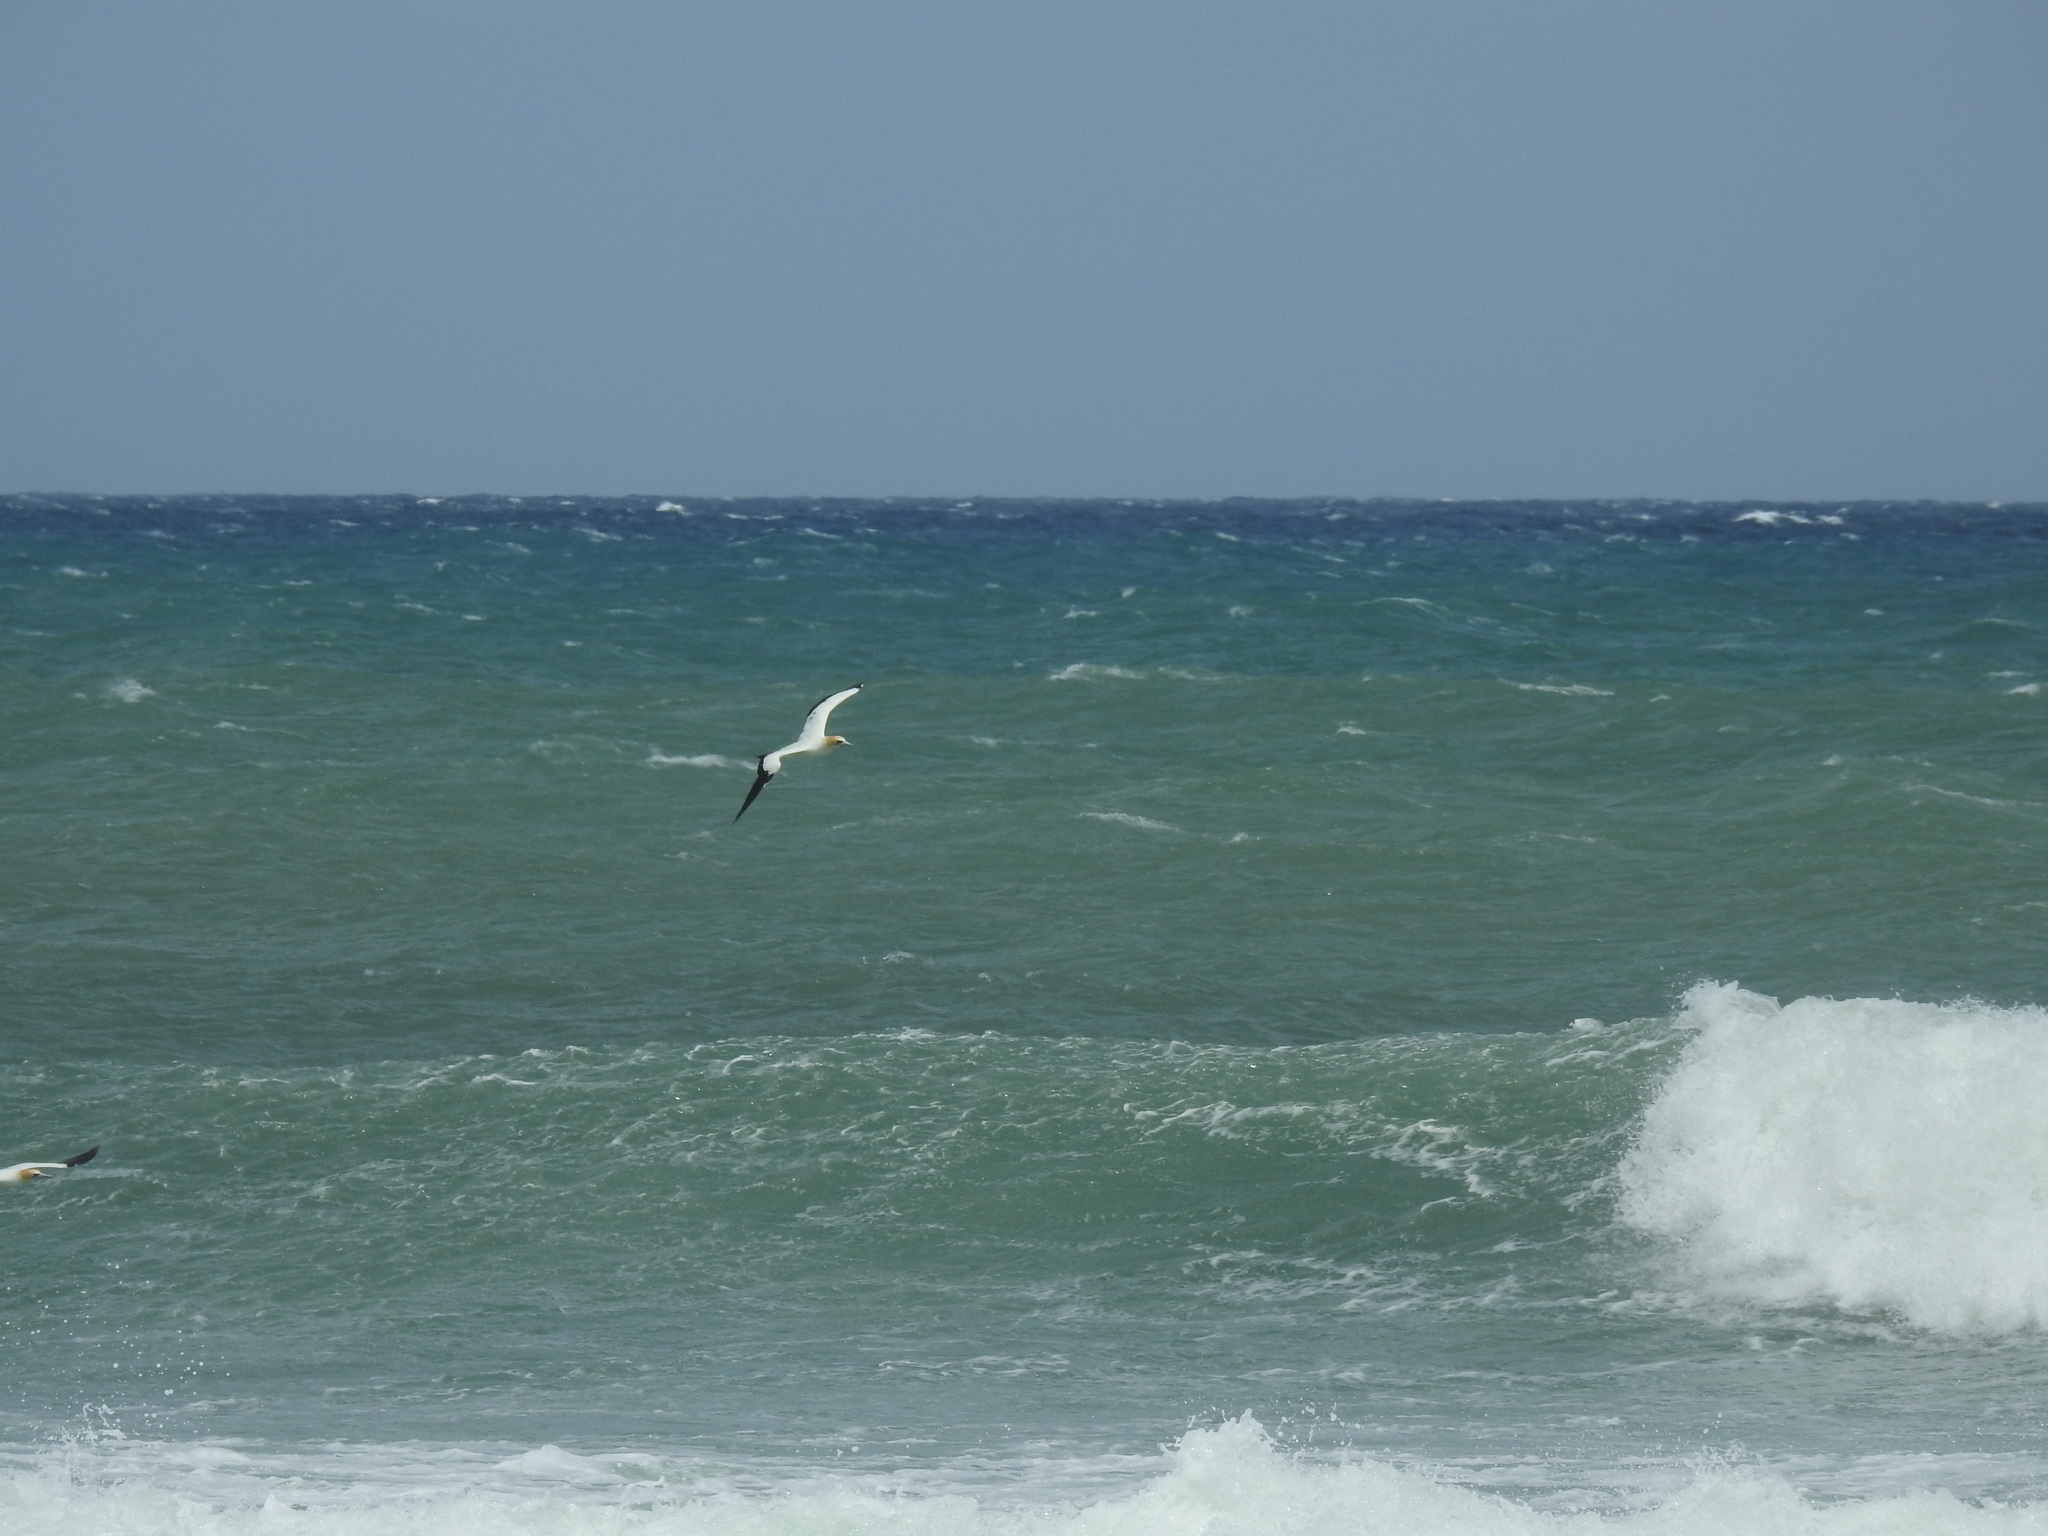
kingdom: Animalia
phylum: Chordata
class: Aves
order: Suliformes
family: Sulidae
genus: Morus
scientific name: Morus serrator
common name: Australasian gannet
